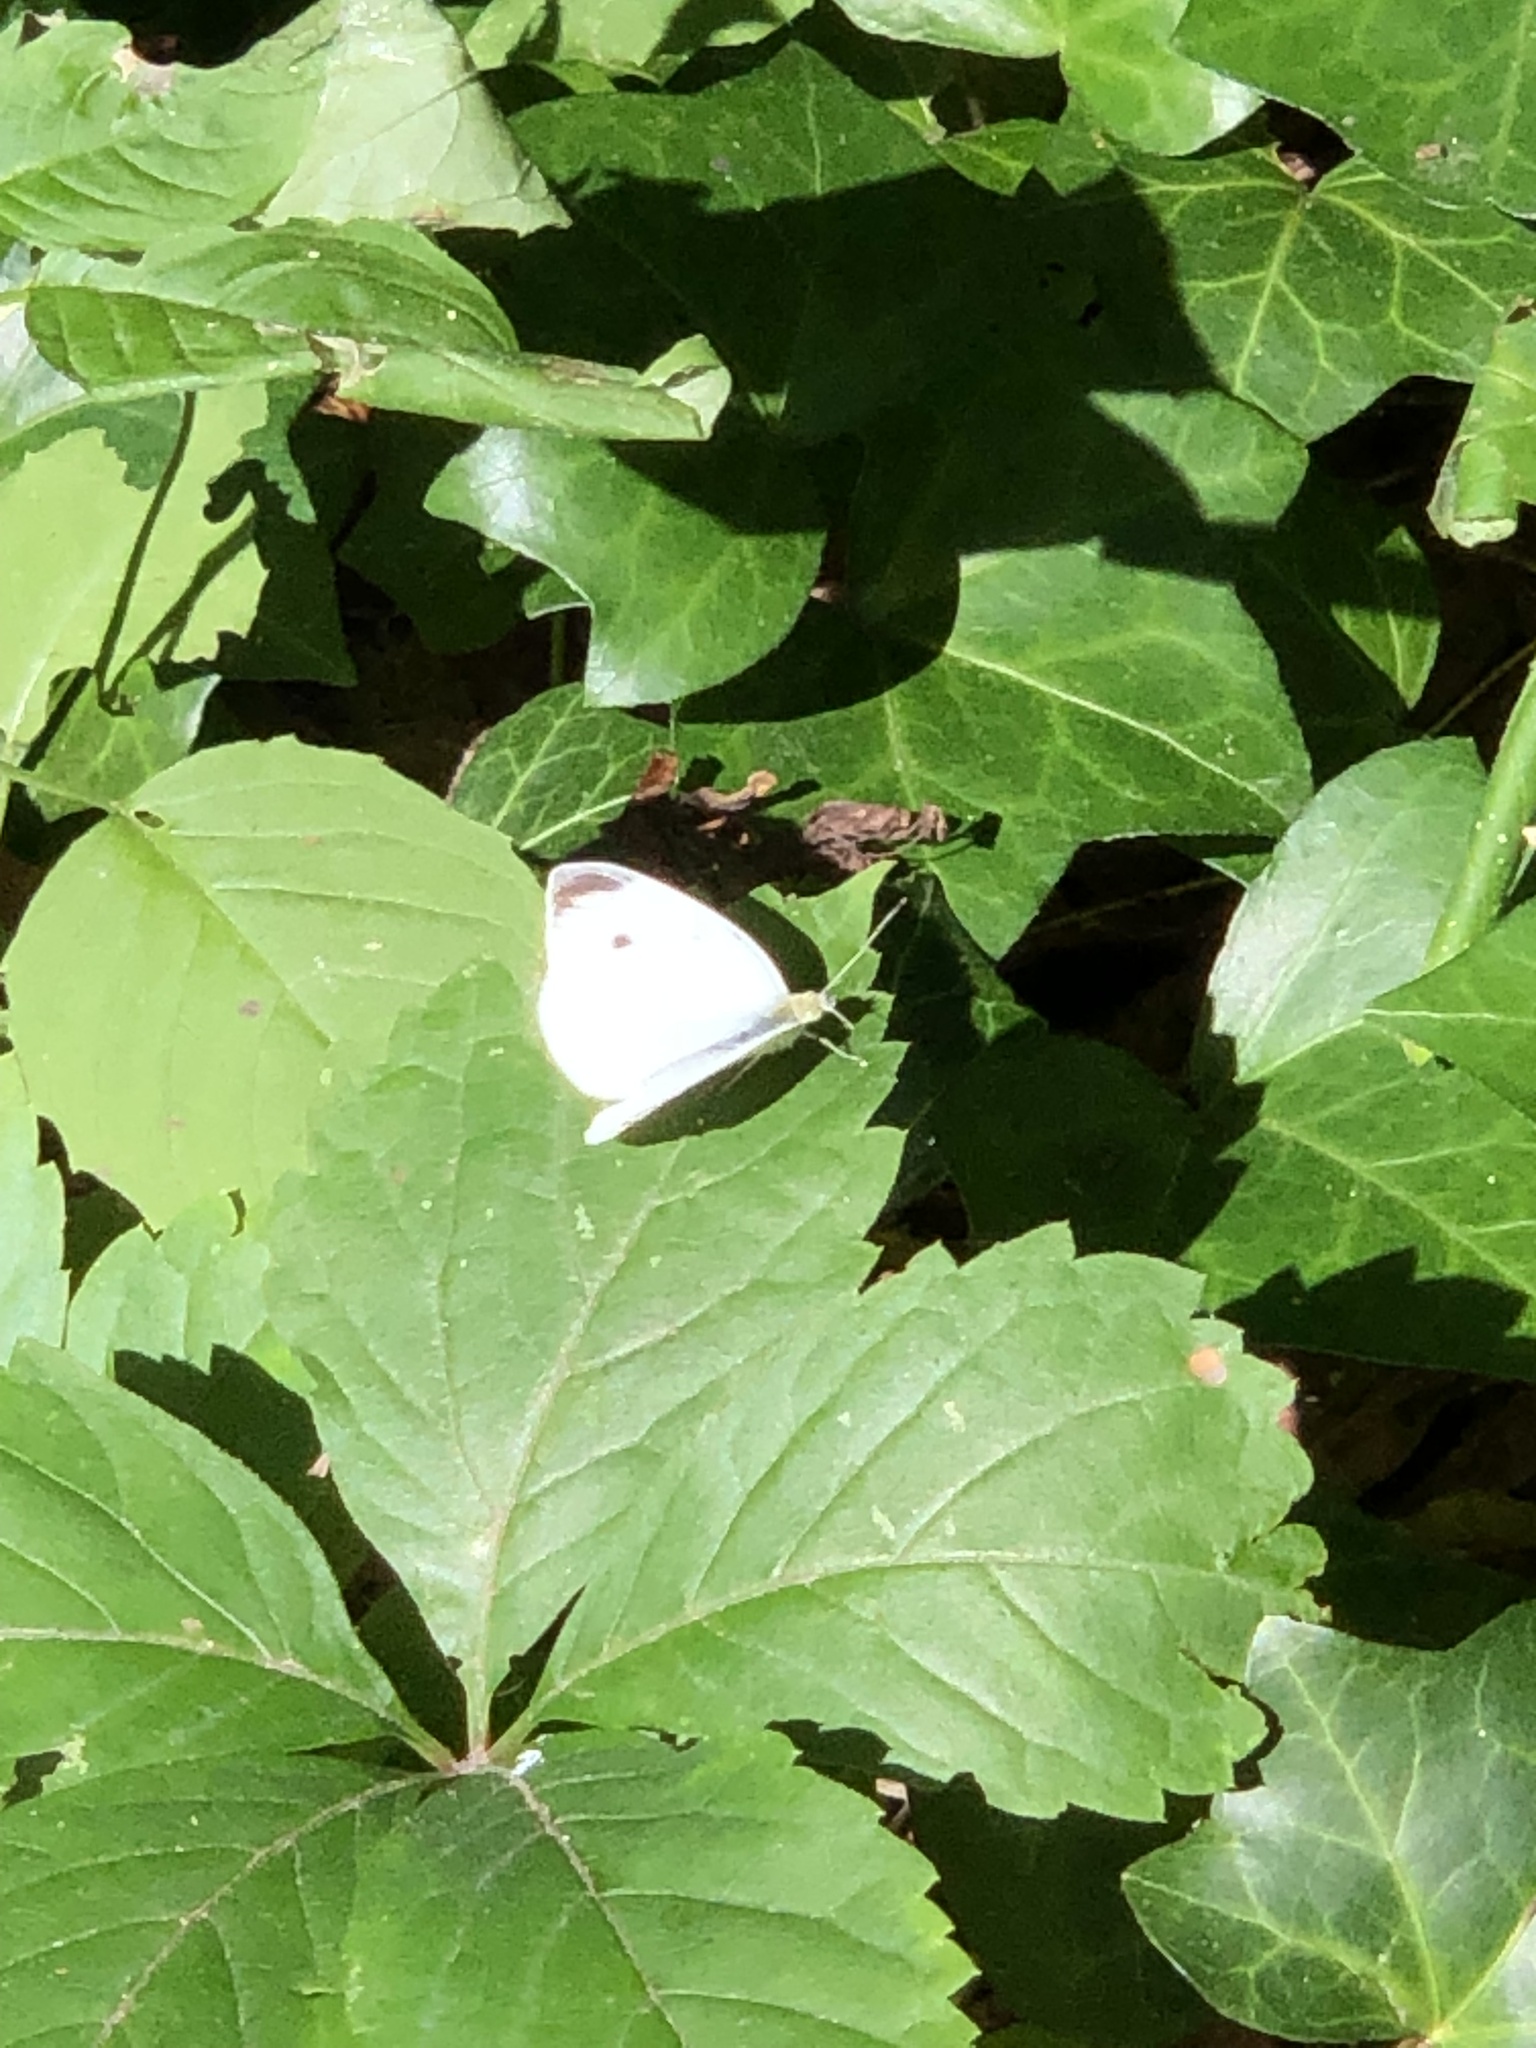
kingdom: Animalia
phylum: Arthropoda
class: Insecta
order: Lepidoptera
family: Pieridae
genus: Pieris
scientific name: Pieris rapae
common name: Small white
